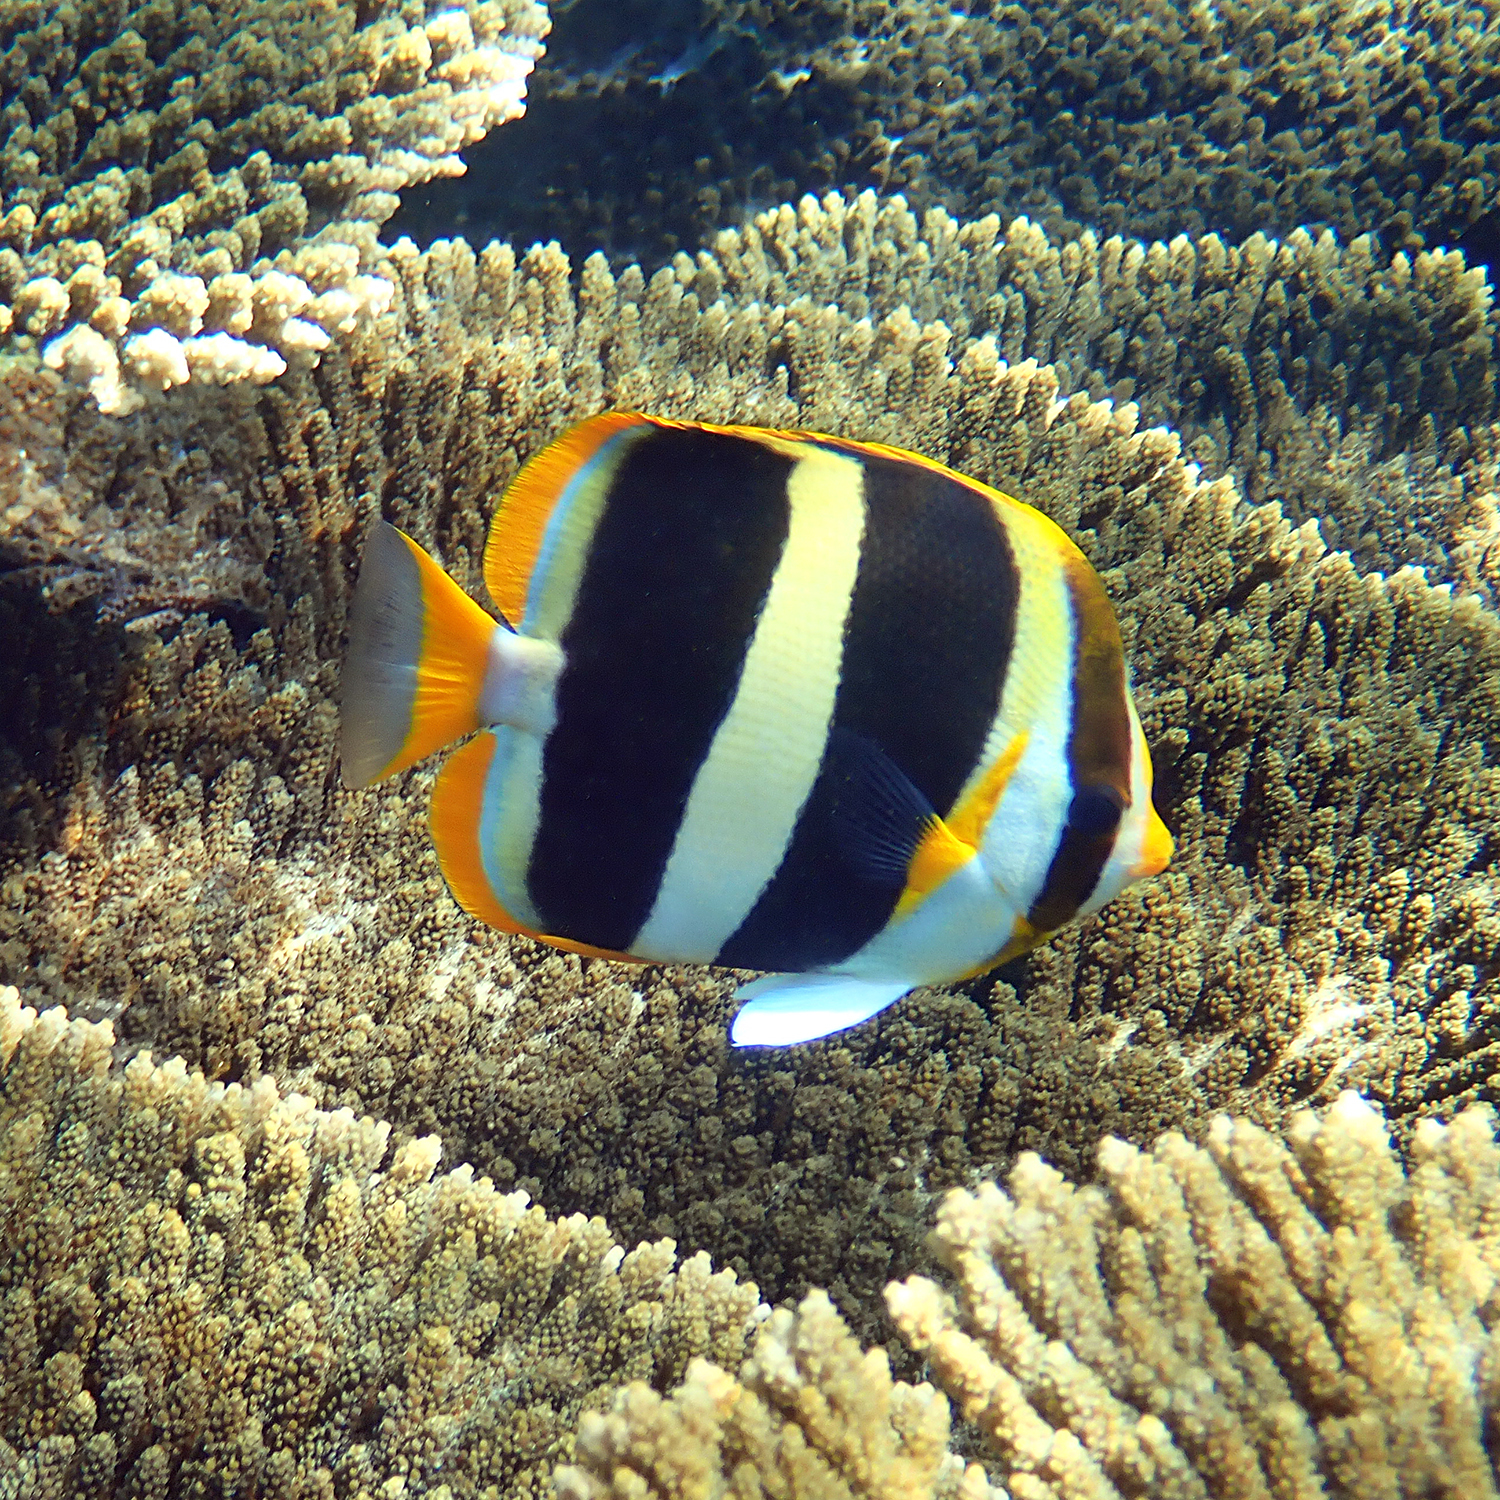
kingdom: Animalia
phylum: Chordata
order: Perciformes
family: Chaetodontidae
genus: Chaetodon
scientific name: Chaetodon tricinctus
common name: Three-striped butterflyfish
